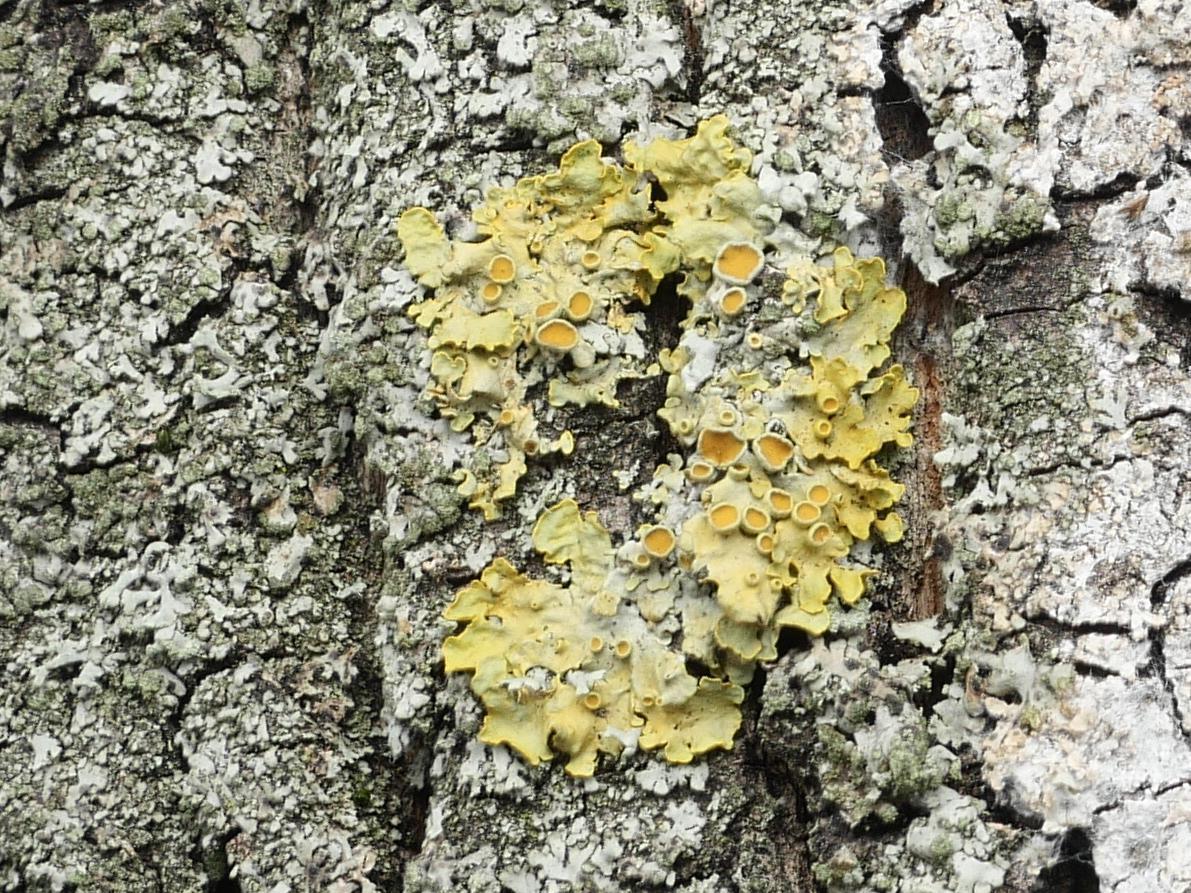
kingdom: Fungi
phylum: Ascomycota
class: Lecanoromycetes
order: Teloschistales
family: Teloschistaceae
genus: Xanthoria
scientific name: Xanthoria parietina
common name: Common orange lichen
